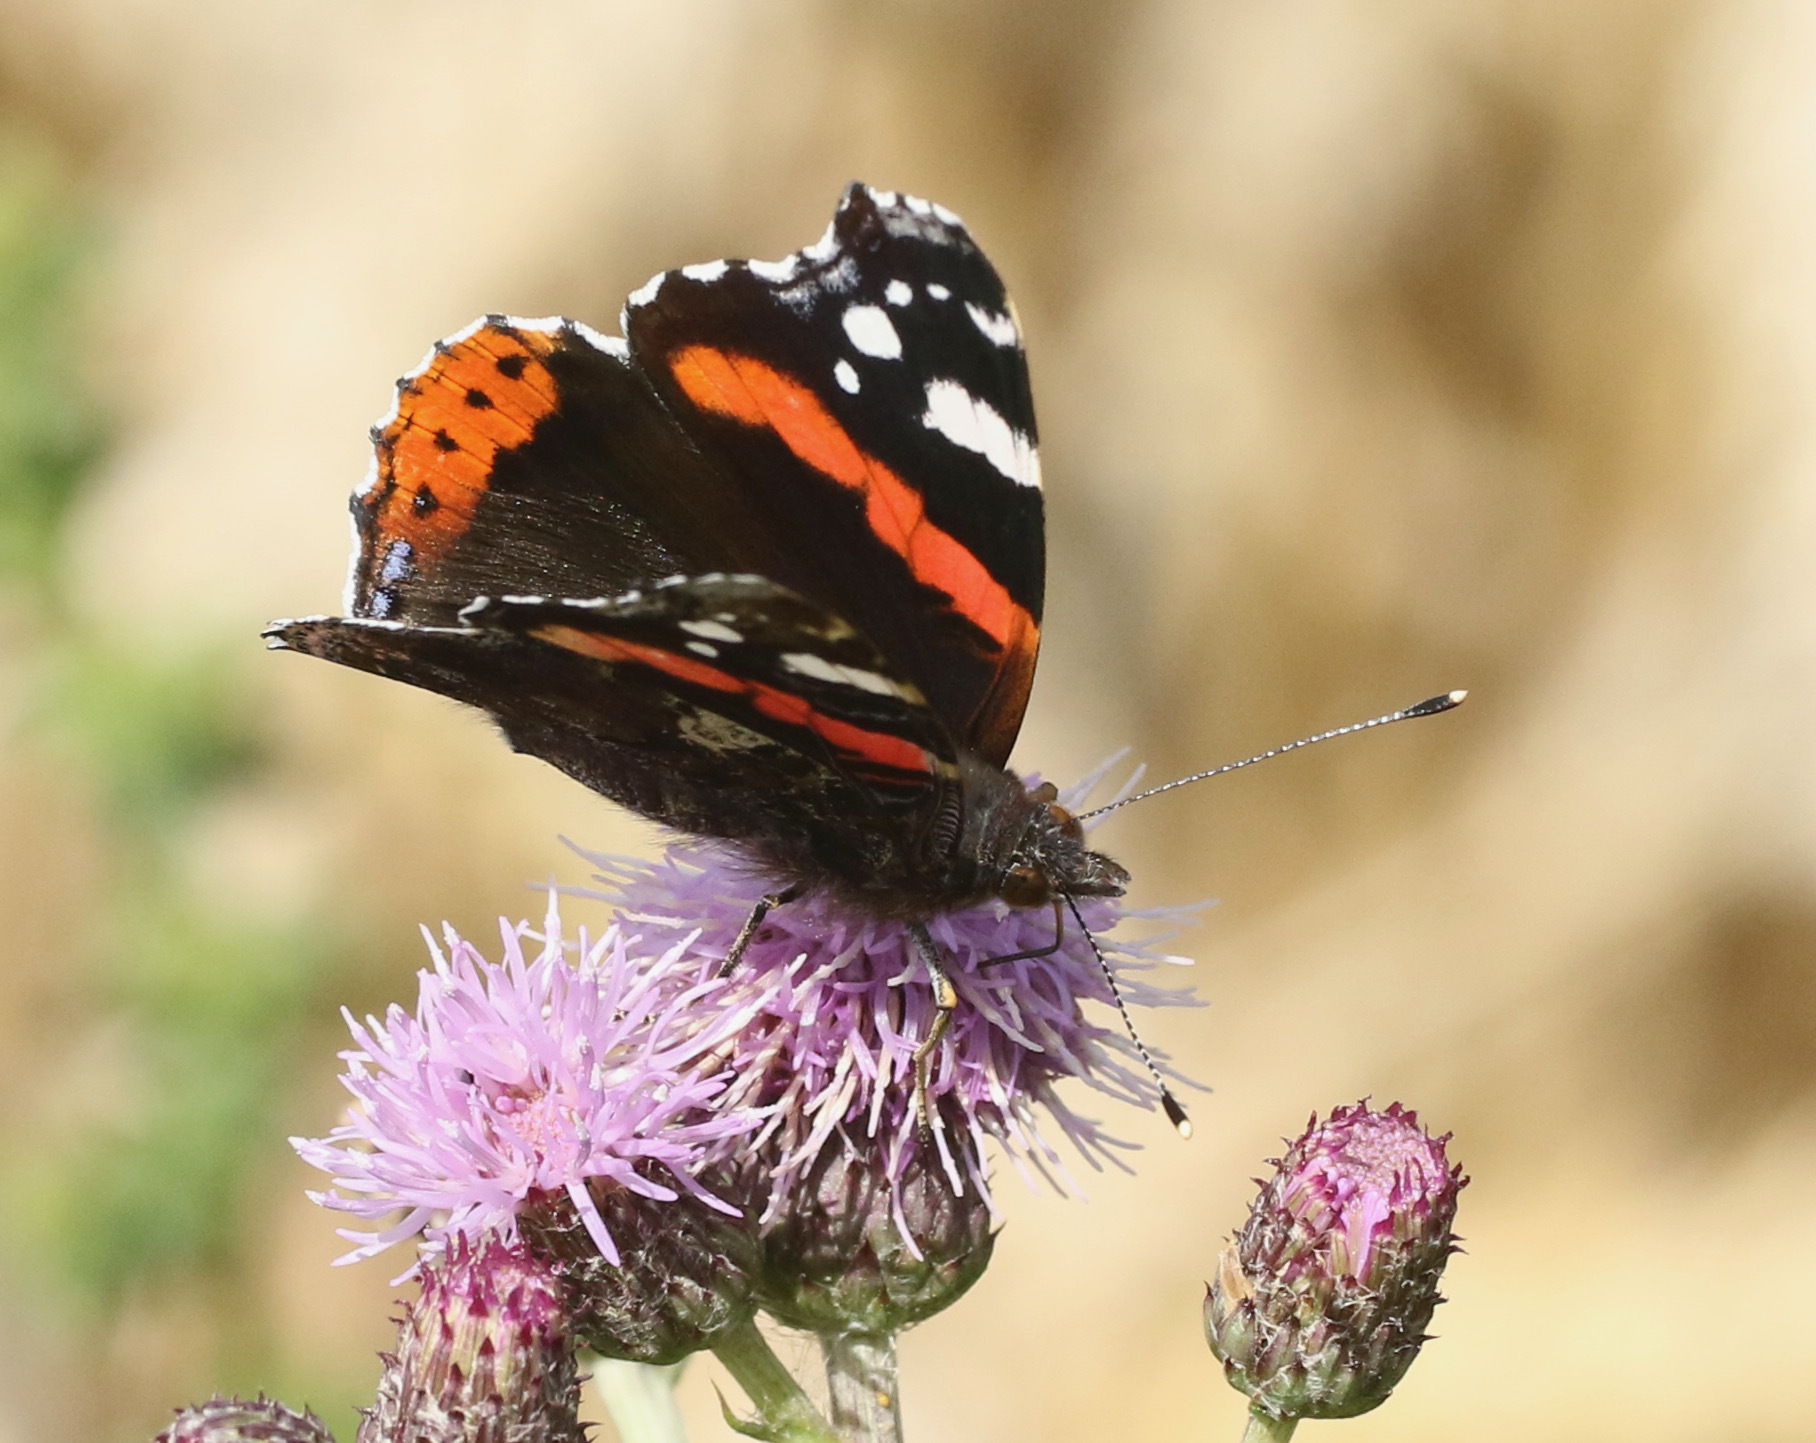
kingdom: Animalia
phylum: Arthropoda
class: Insecta
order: Lepidoptera
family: Nymphalidae
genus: Vanessa
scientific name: Vanessa atalanta
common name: Red admiral
